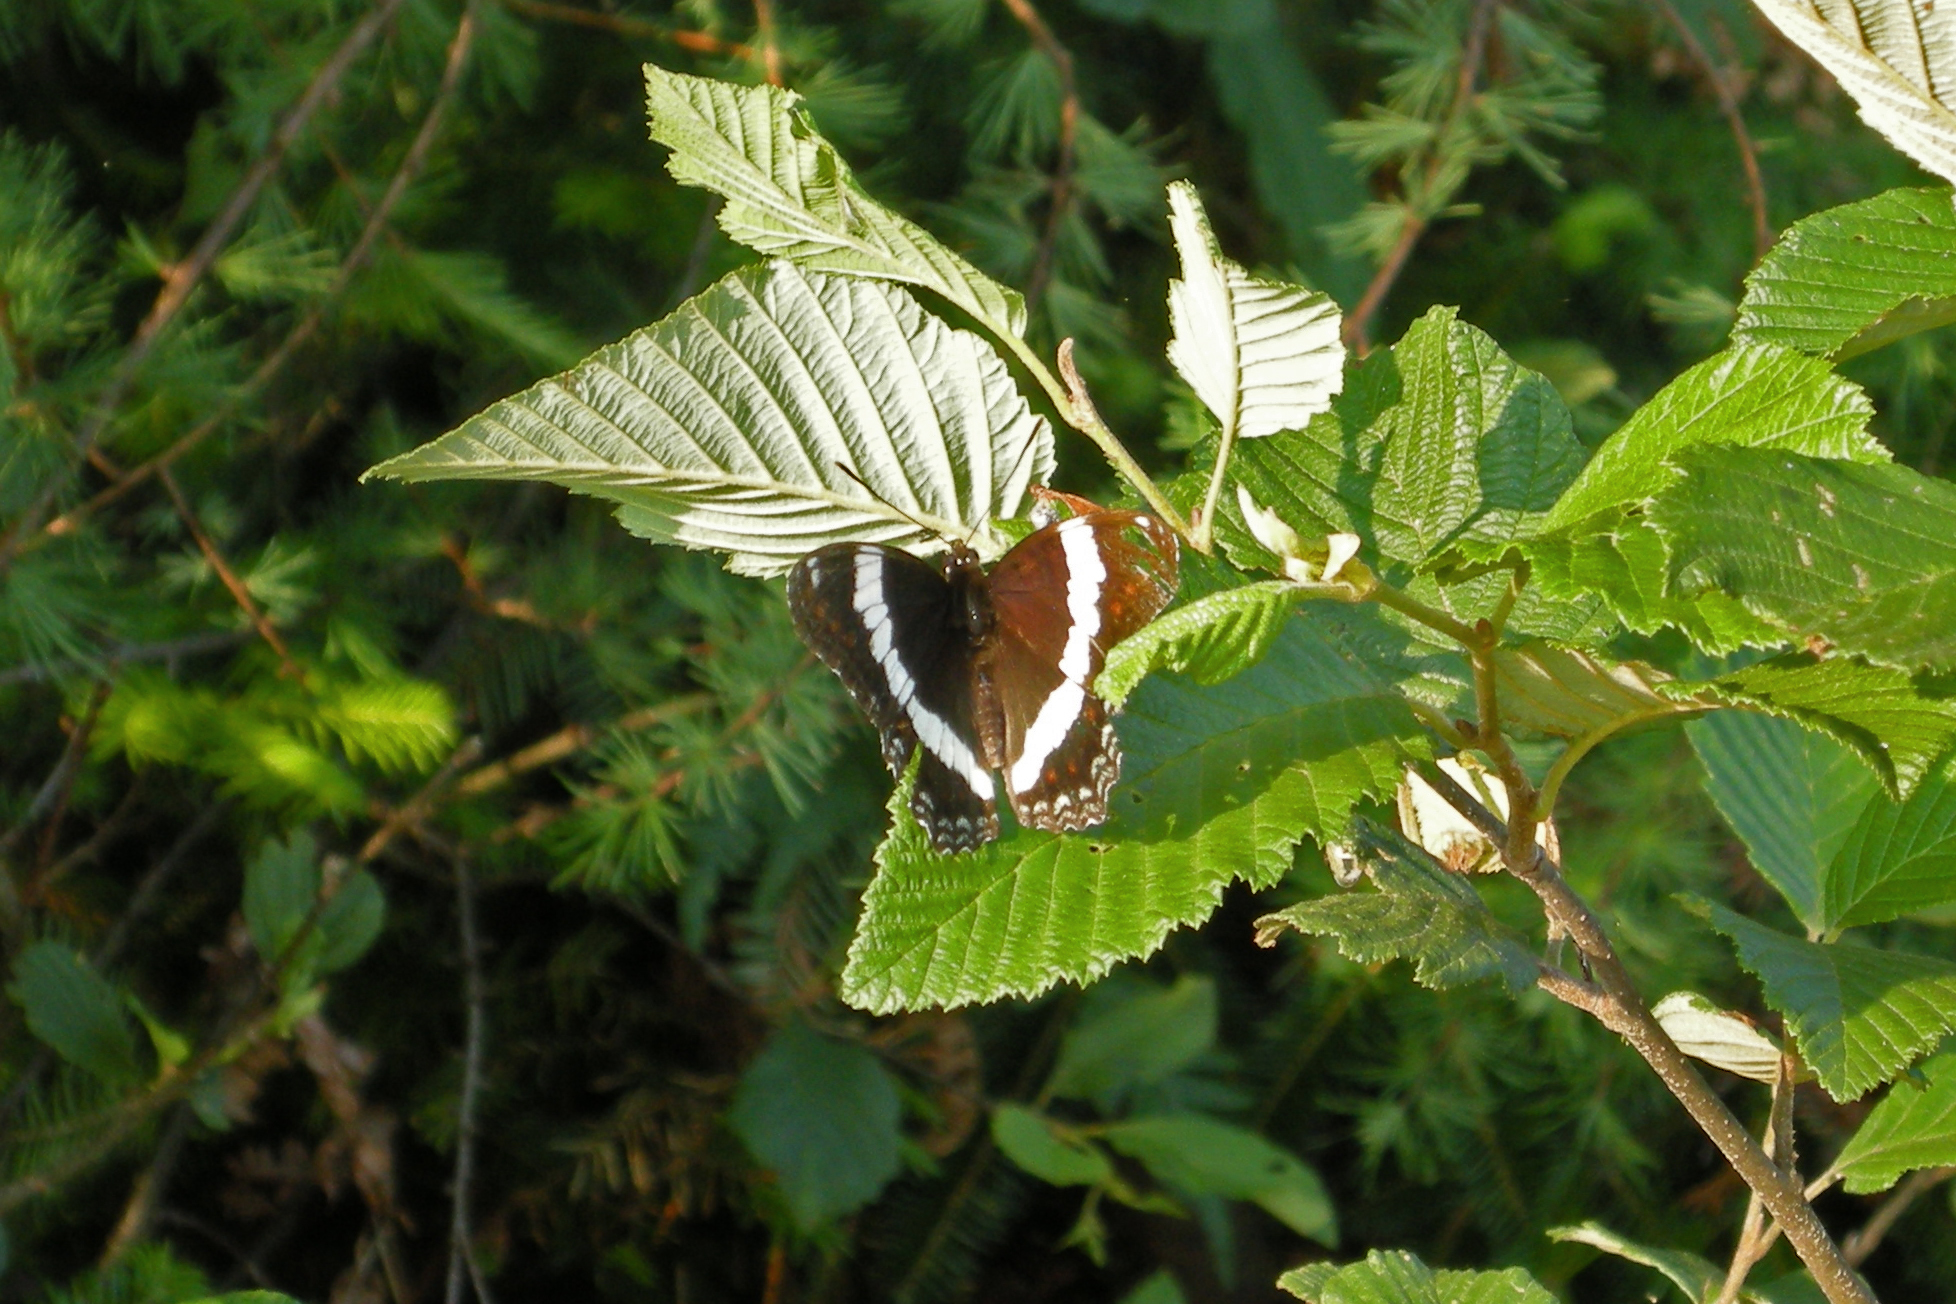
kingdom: Animalia
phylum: Arthropoda
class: Insecta
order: Lepidoptera
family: Nymphalidae
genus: Limenitis
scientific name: Limenitis arthemis
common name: Red-spotted admiral
